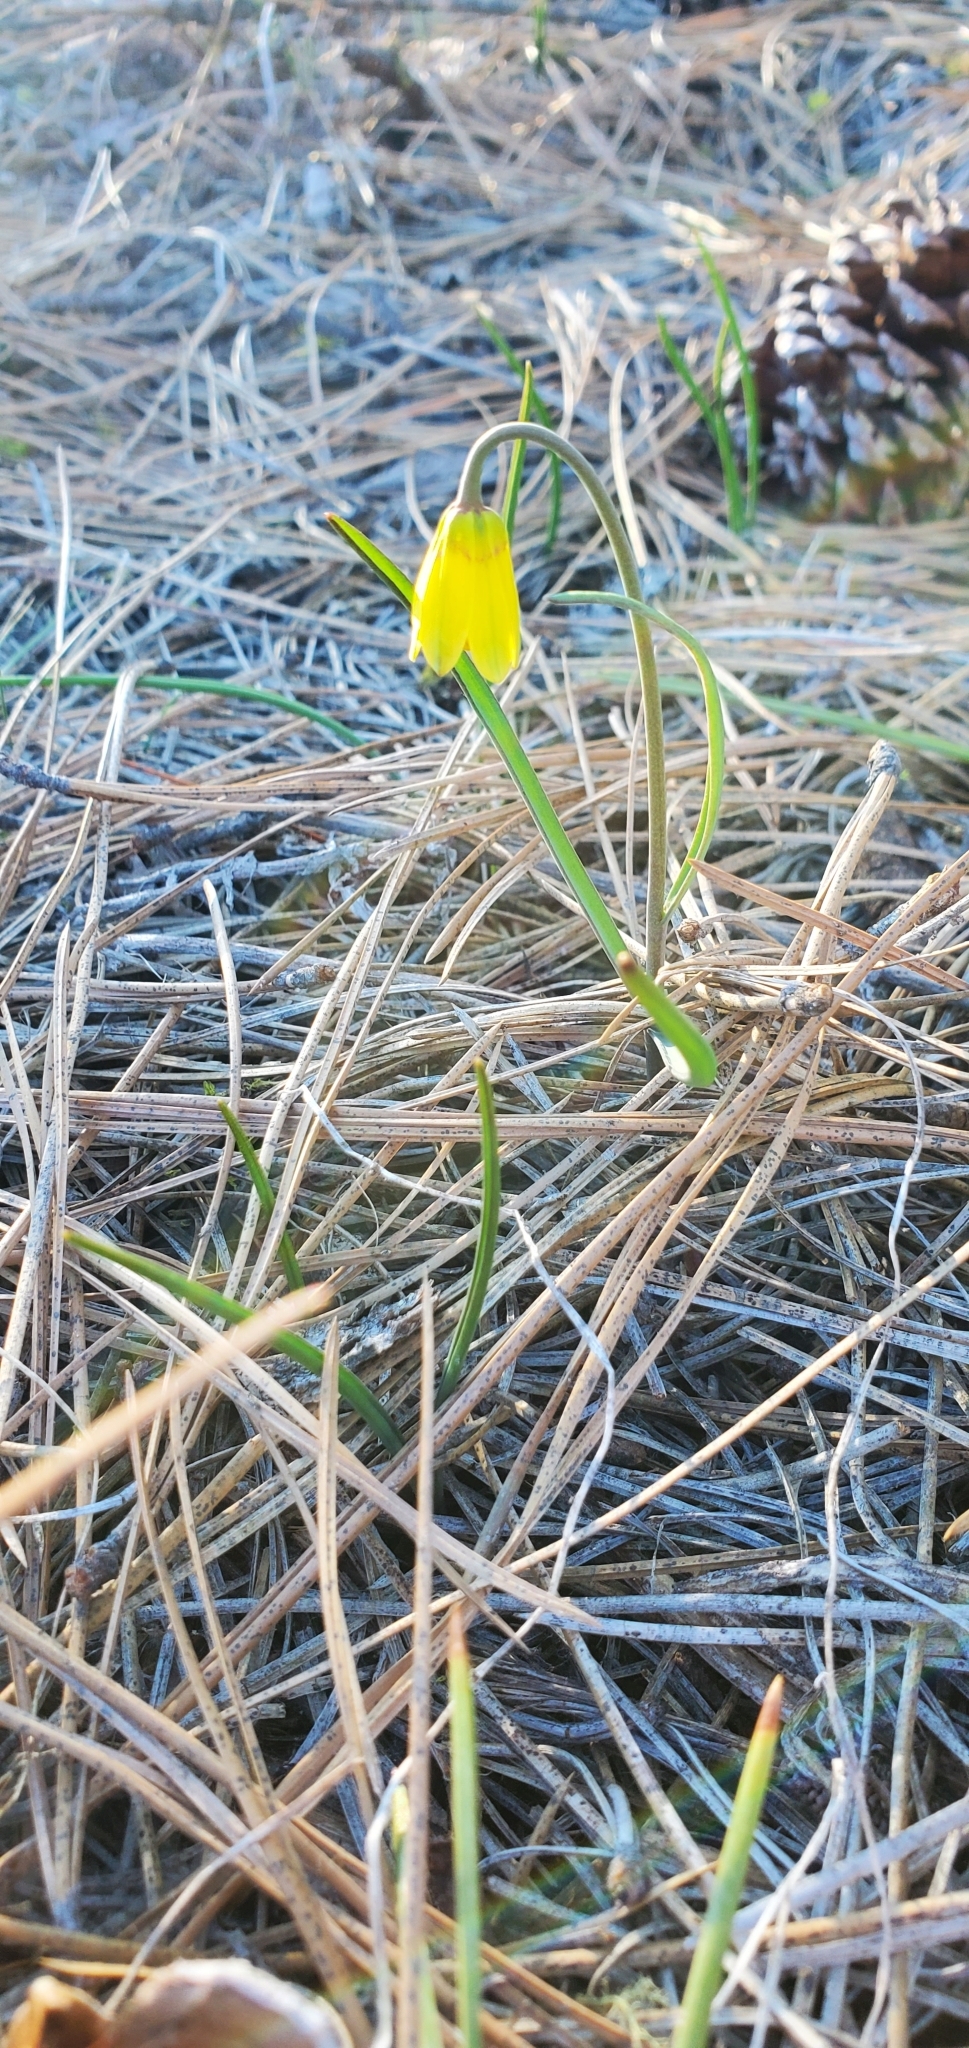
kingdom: Plantae
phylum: Tracheophyta
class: Liliopsida
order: Liliales
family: Liliaceae
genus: Fritillaria
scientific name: Fritillaria pudica
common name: Yellow fritillary
